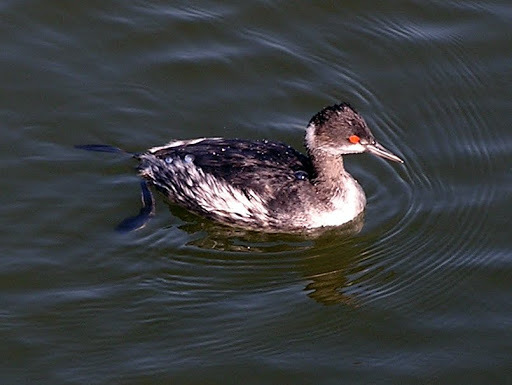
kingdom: Animalia
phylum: Chordata
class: Aves
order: Podicipediformes
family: Podicipedidae
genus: Podiceps
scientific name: Podiceps nigricollis
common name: Black-necked grebe
